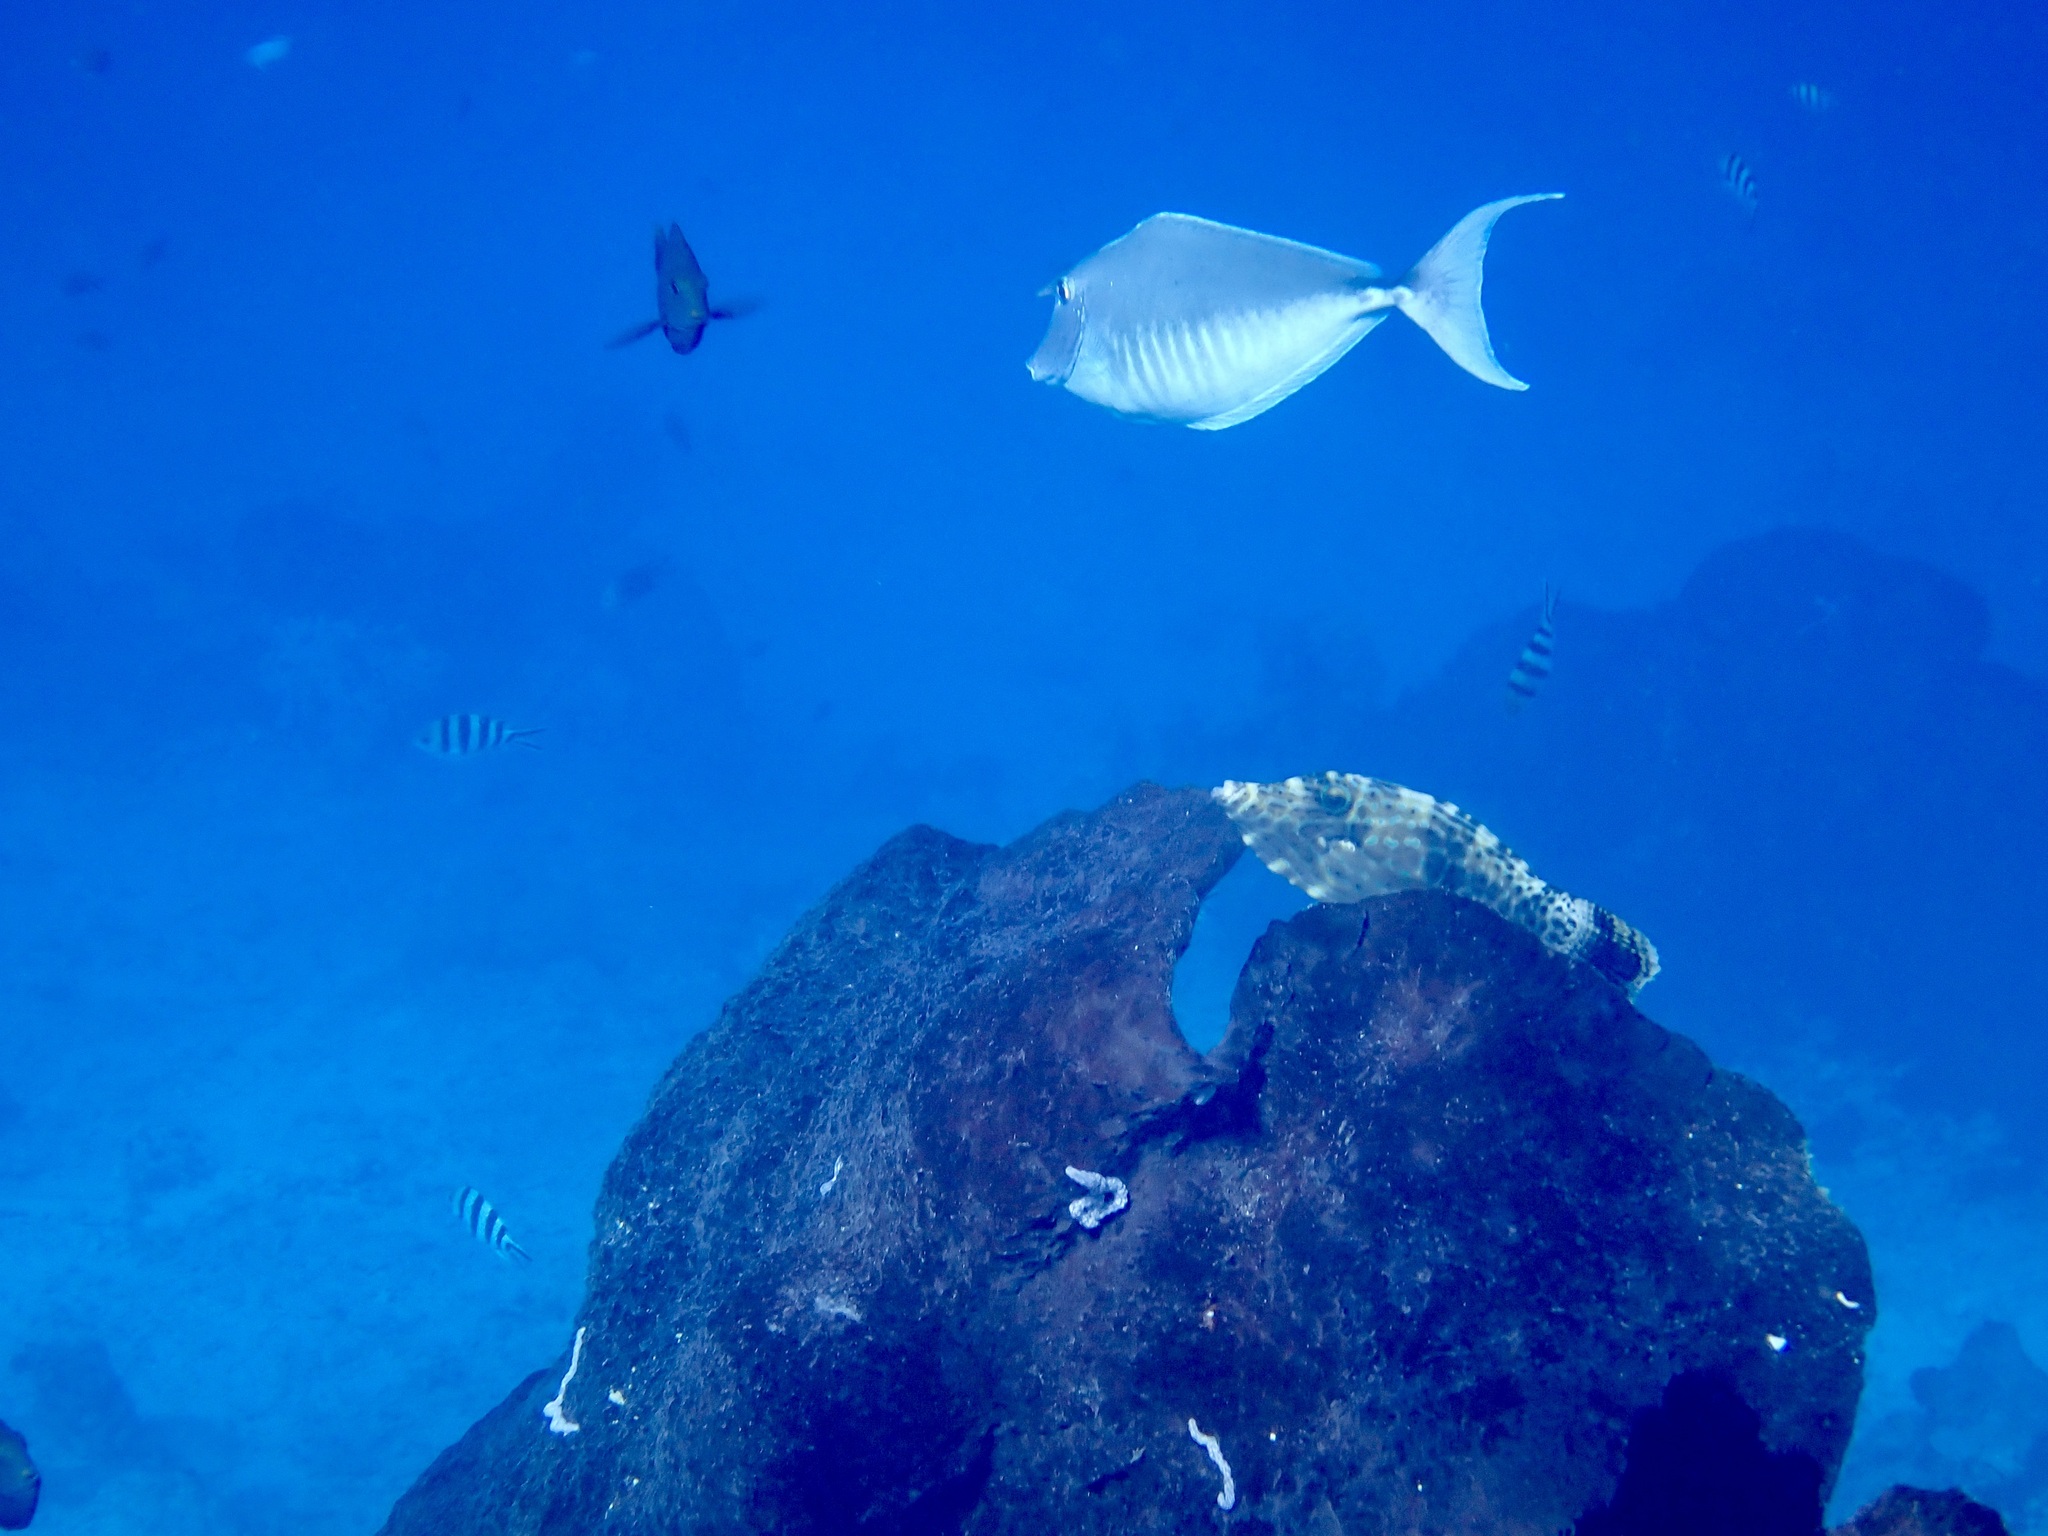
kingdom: Animalia
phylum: Chordata
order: Tetraodontiformes
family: Monacanthidae
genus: Aluterus
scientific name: Aluterus scriptus
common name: Scribbled leatherjacket filefish
